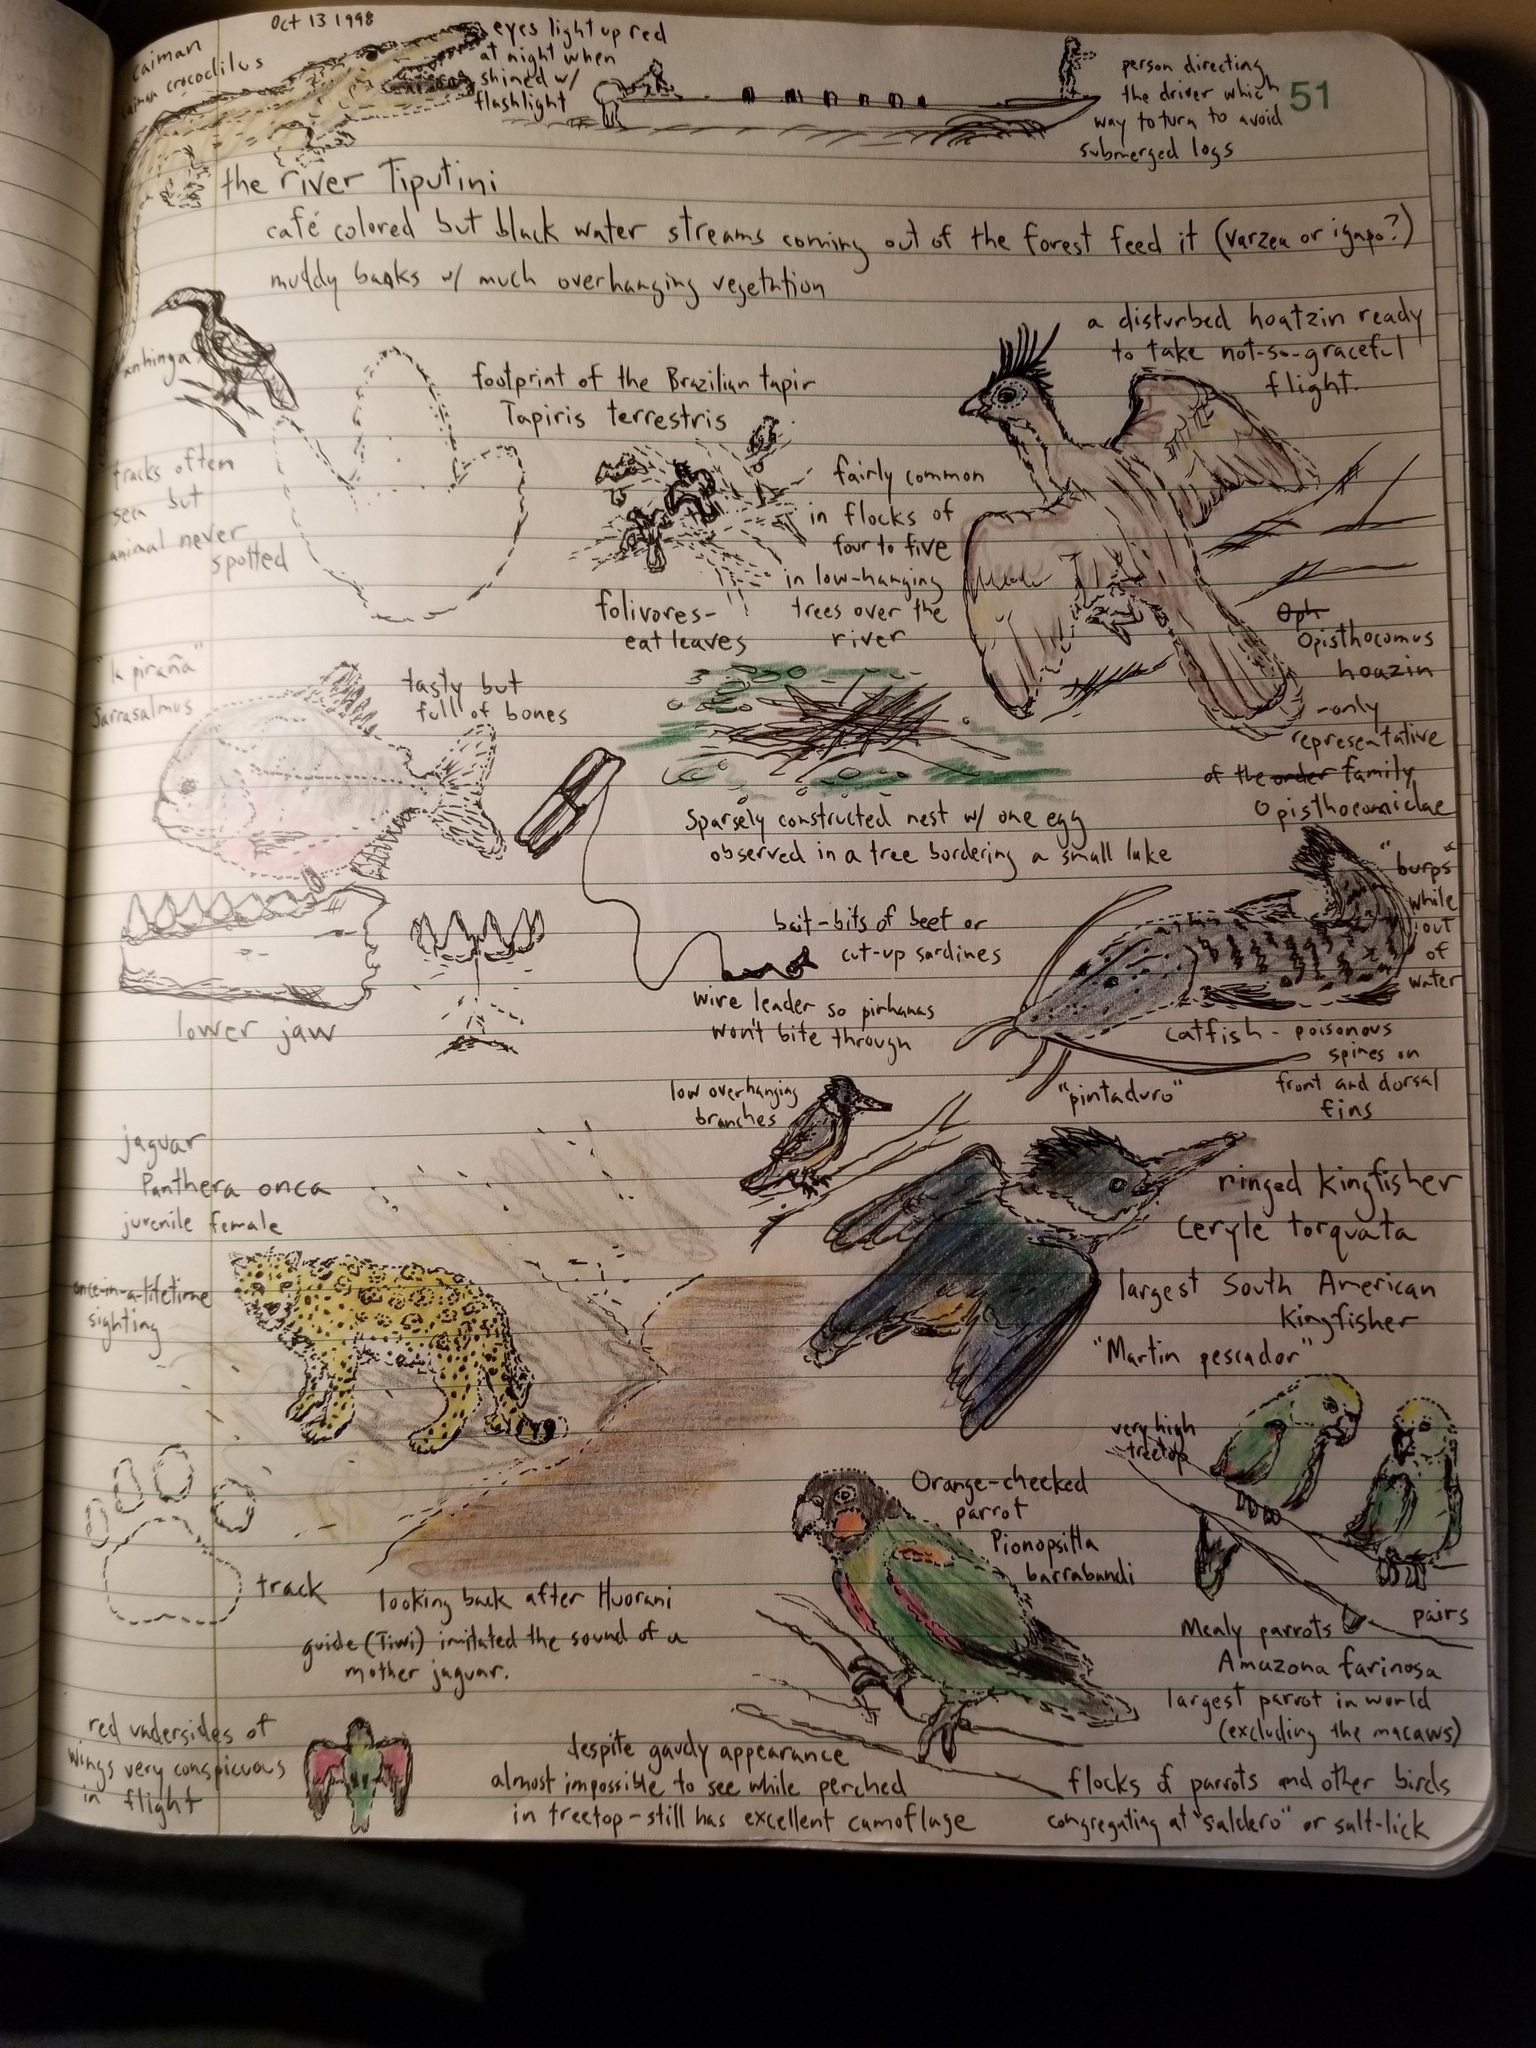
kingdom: Animalia
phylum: Chordata
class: Aves
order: Coraciiformes
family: Alcedinidae
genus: Megaceryle
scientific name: Megaceryle torquata
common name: Ringed kingfisher
